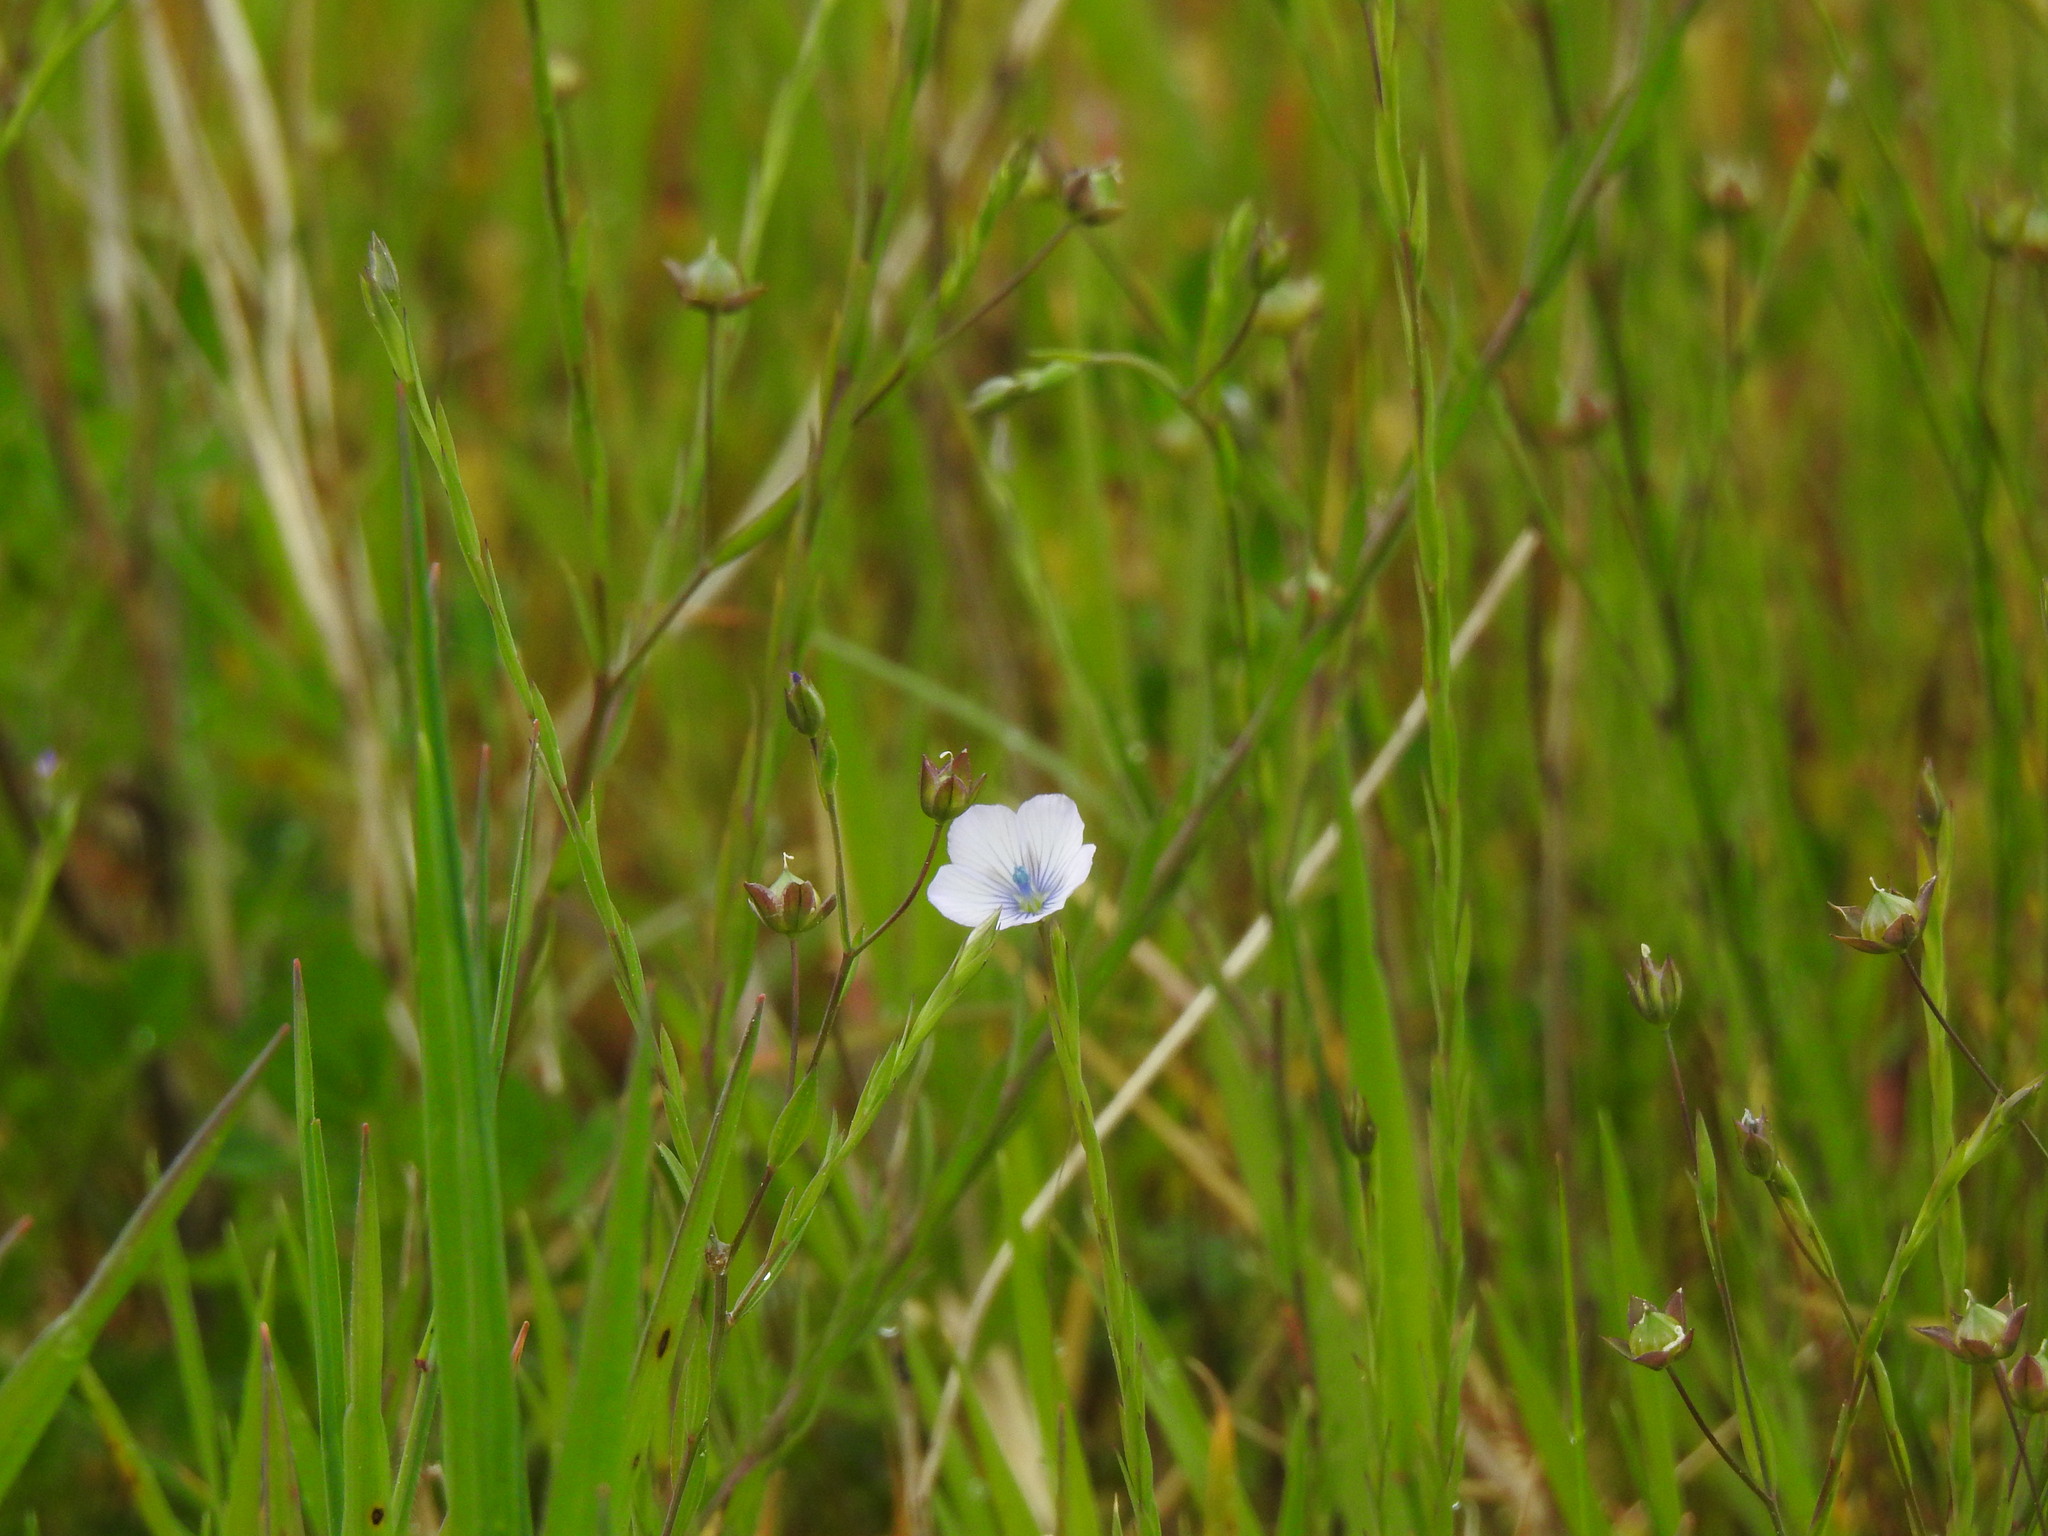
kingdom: Plantae
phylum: Tracheophyta
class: Magnoliopsida
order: Malpighiales
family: Linaceae
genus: Linum
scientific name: Linum bienne
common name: Pale flax
